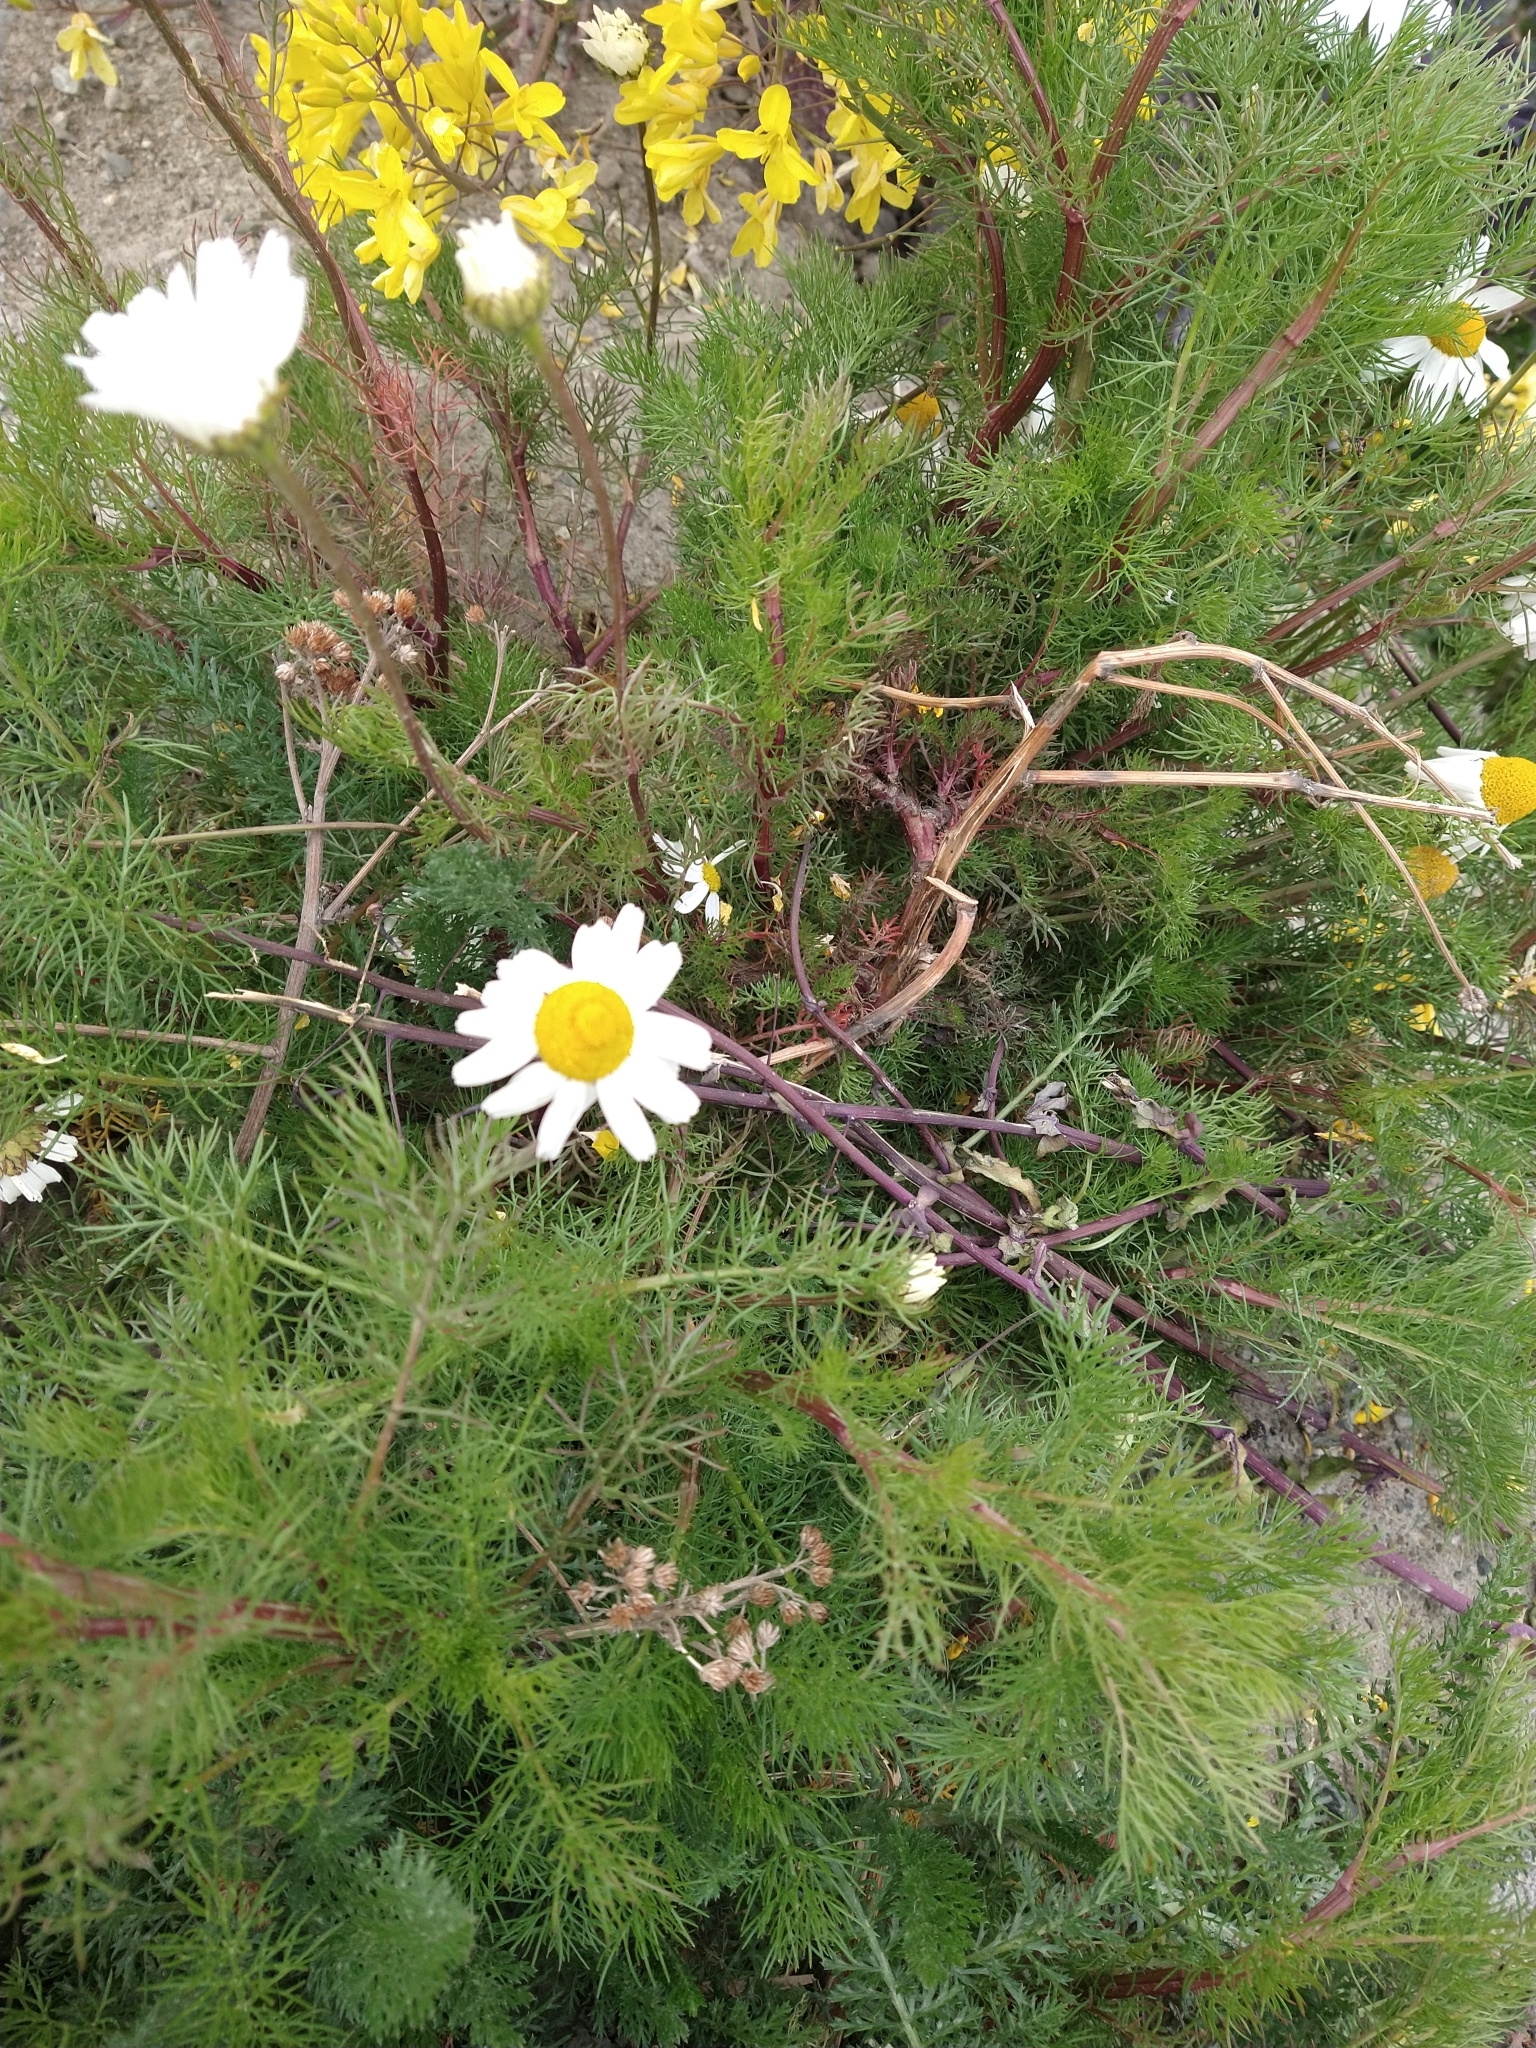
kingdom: Plantae
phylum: Tracheophyta
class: Magnoliopsida
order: Asterales
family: Asteraceae
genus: Tripleurospermum
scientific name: Tripleurospermum inodorum
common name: Scentless mayweed
